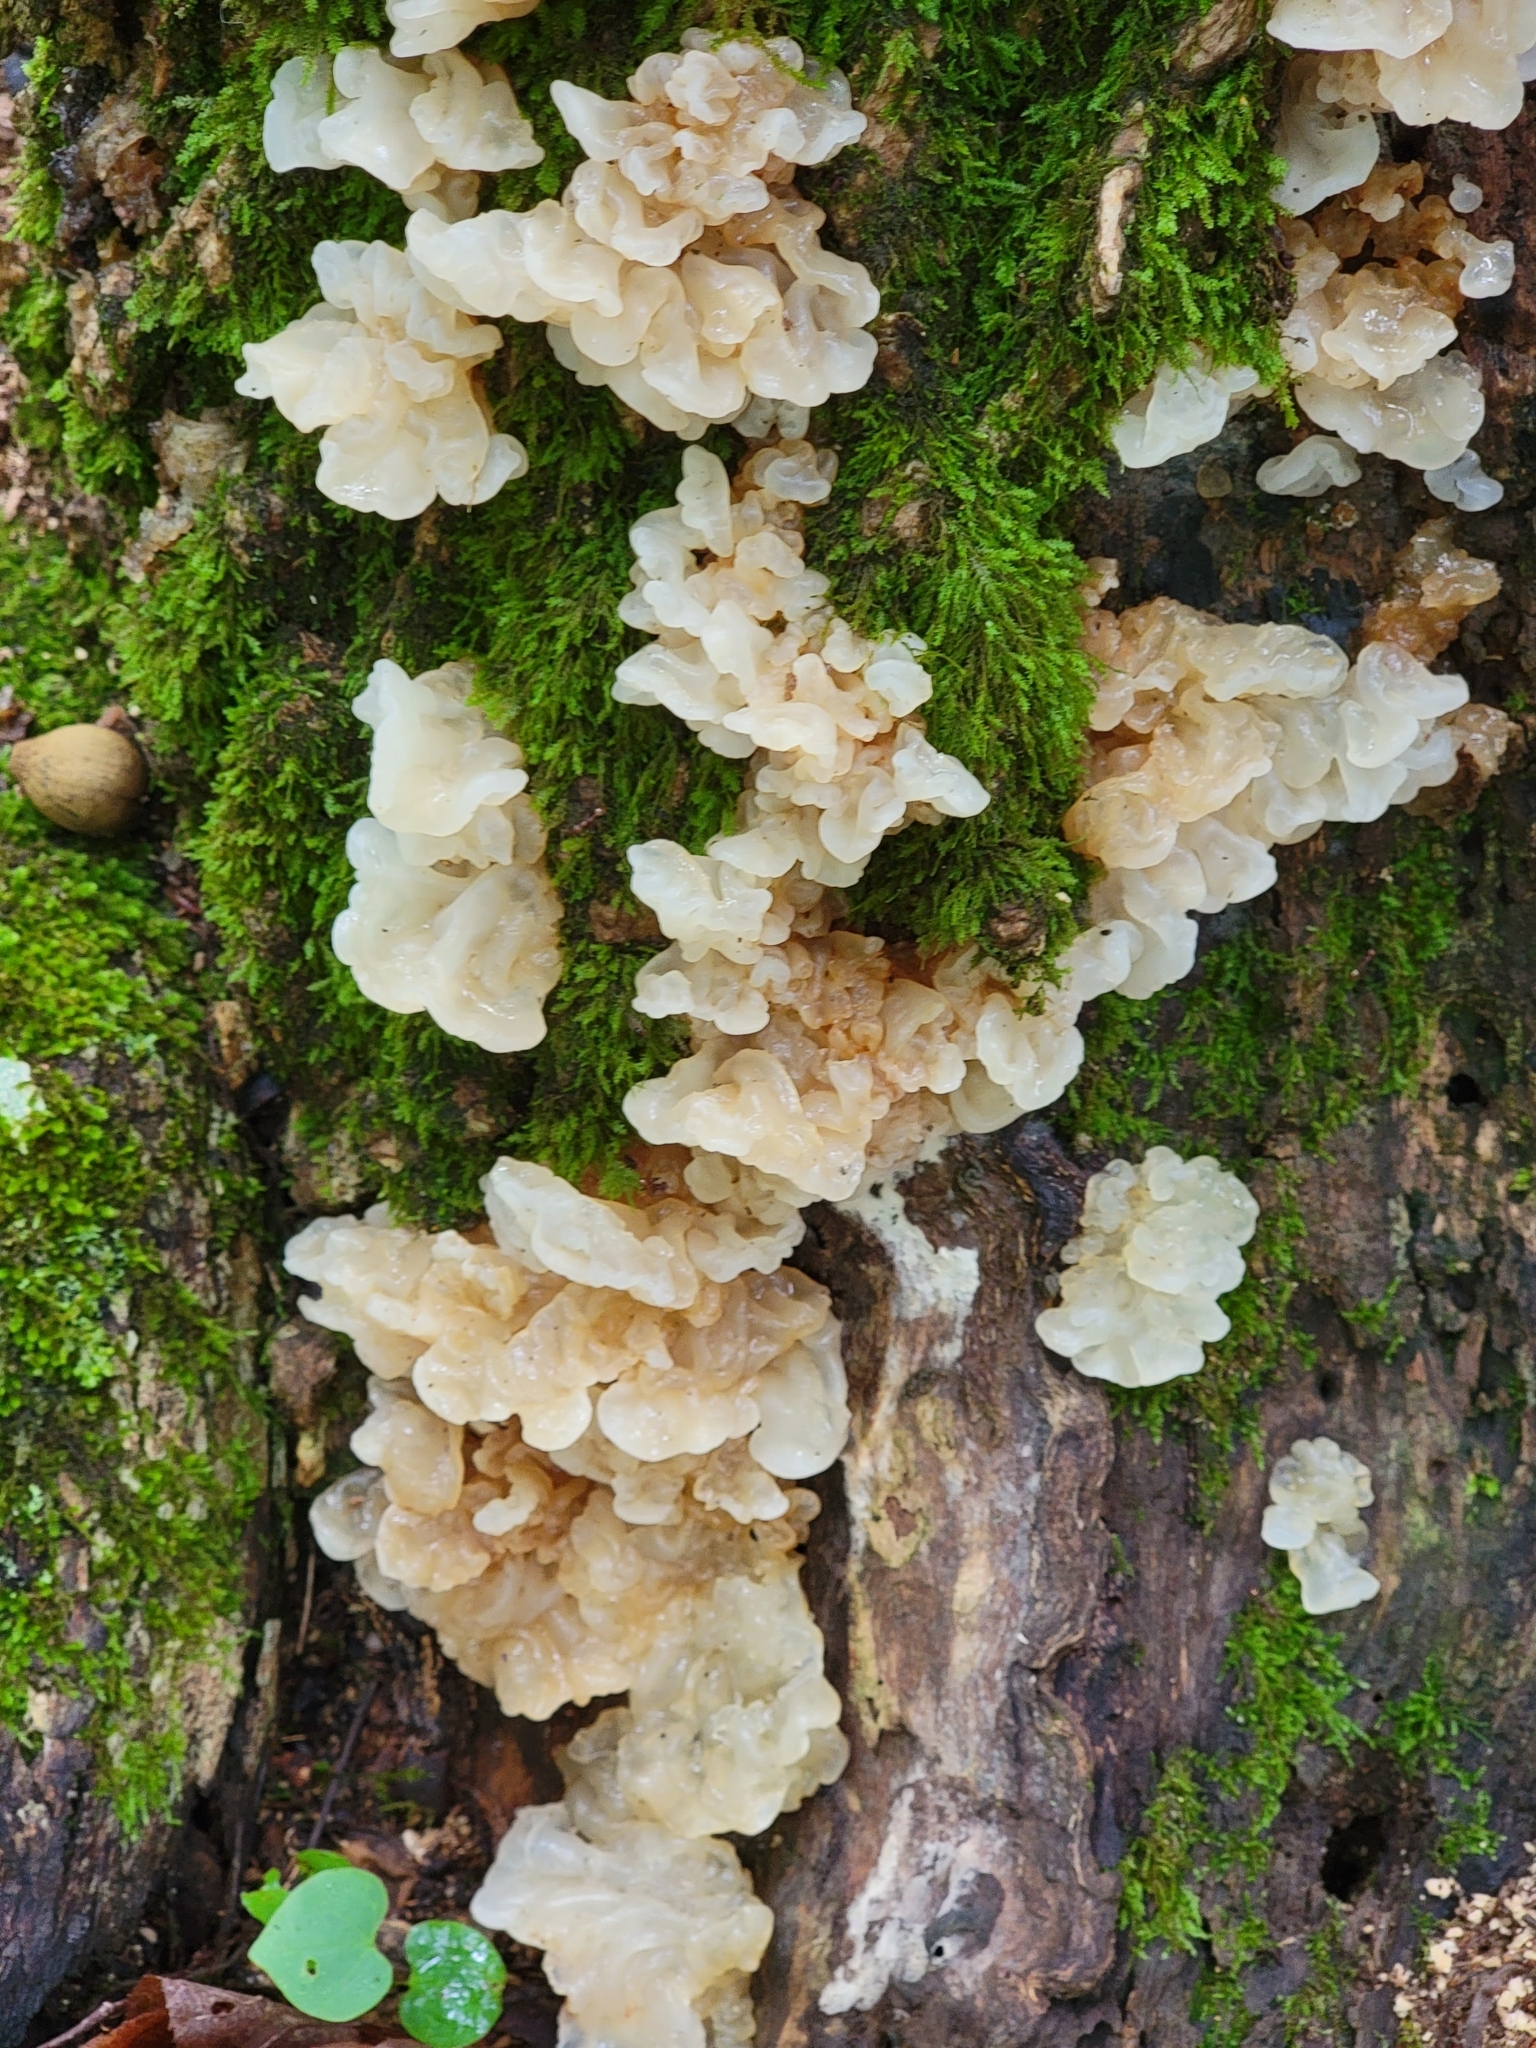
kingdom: Fungi
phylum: Basidiomycota
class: Agaricomycetes
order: Auriculariales
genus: Ductifera
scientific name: Ductifera pululahuana
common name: White jelly fungus
